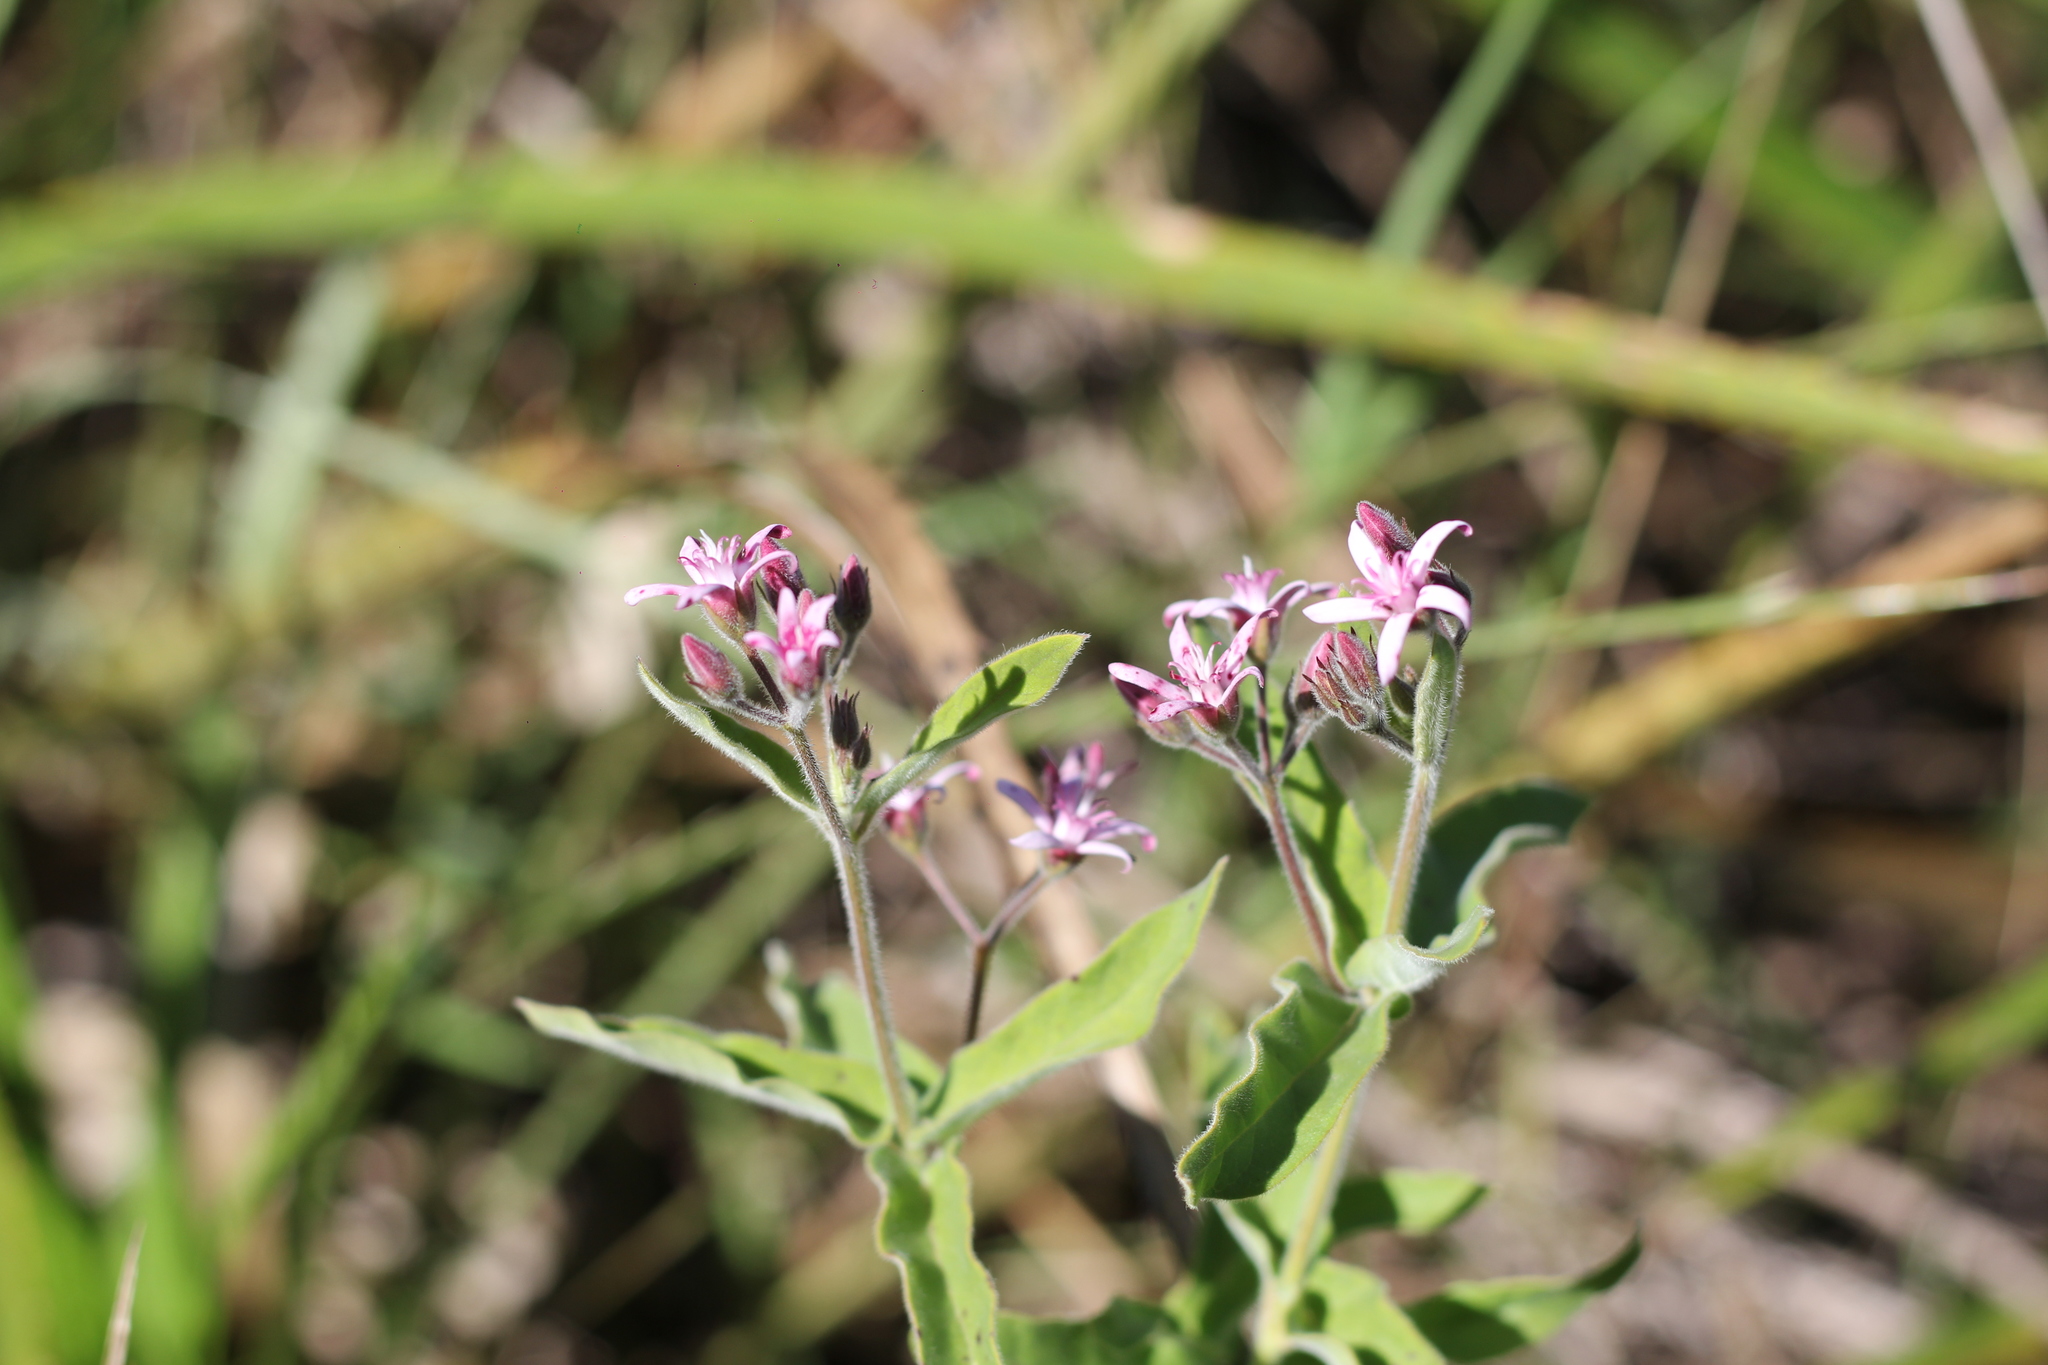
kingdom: Plantae
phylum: Tracheophyta
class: Magnoliopsida
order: Gentianales
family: Apocynaceae
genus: Oxypetalum
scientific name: Oxypetalum solanoides
